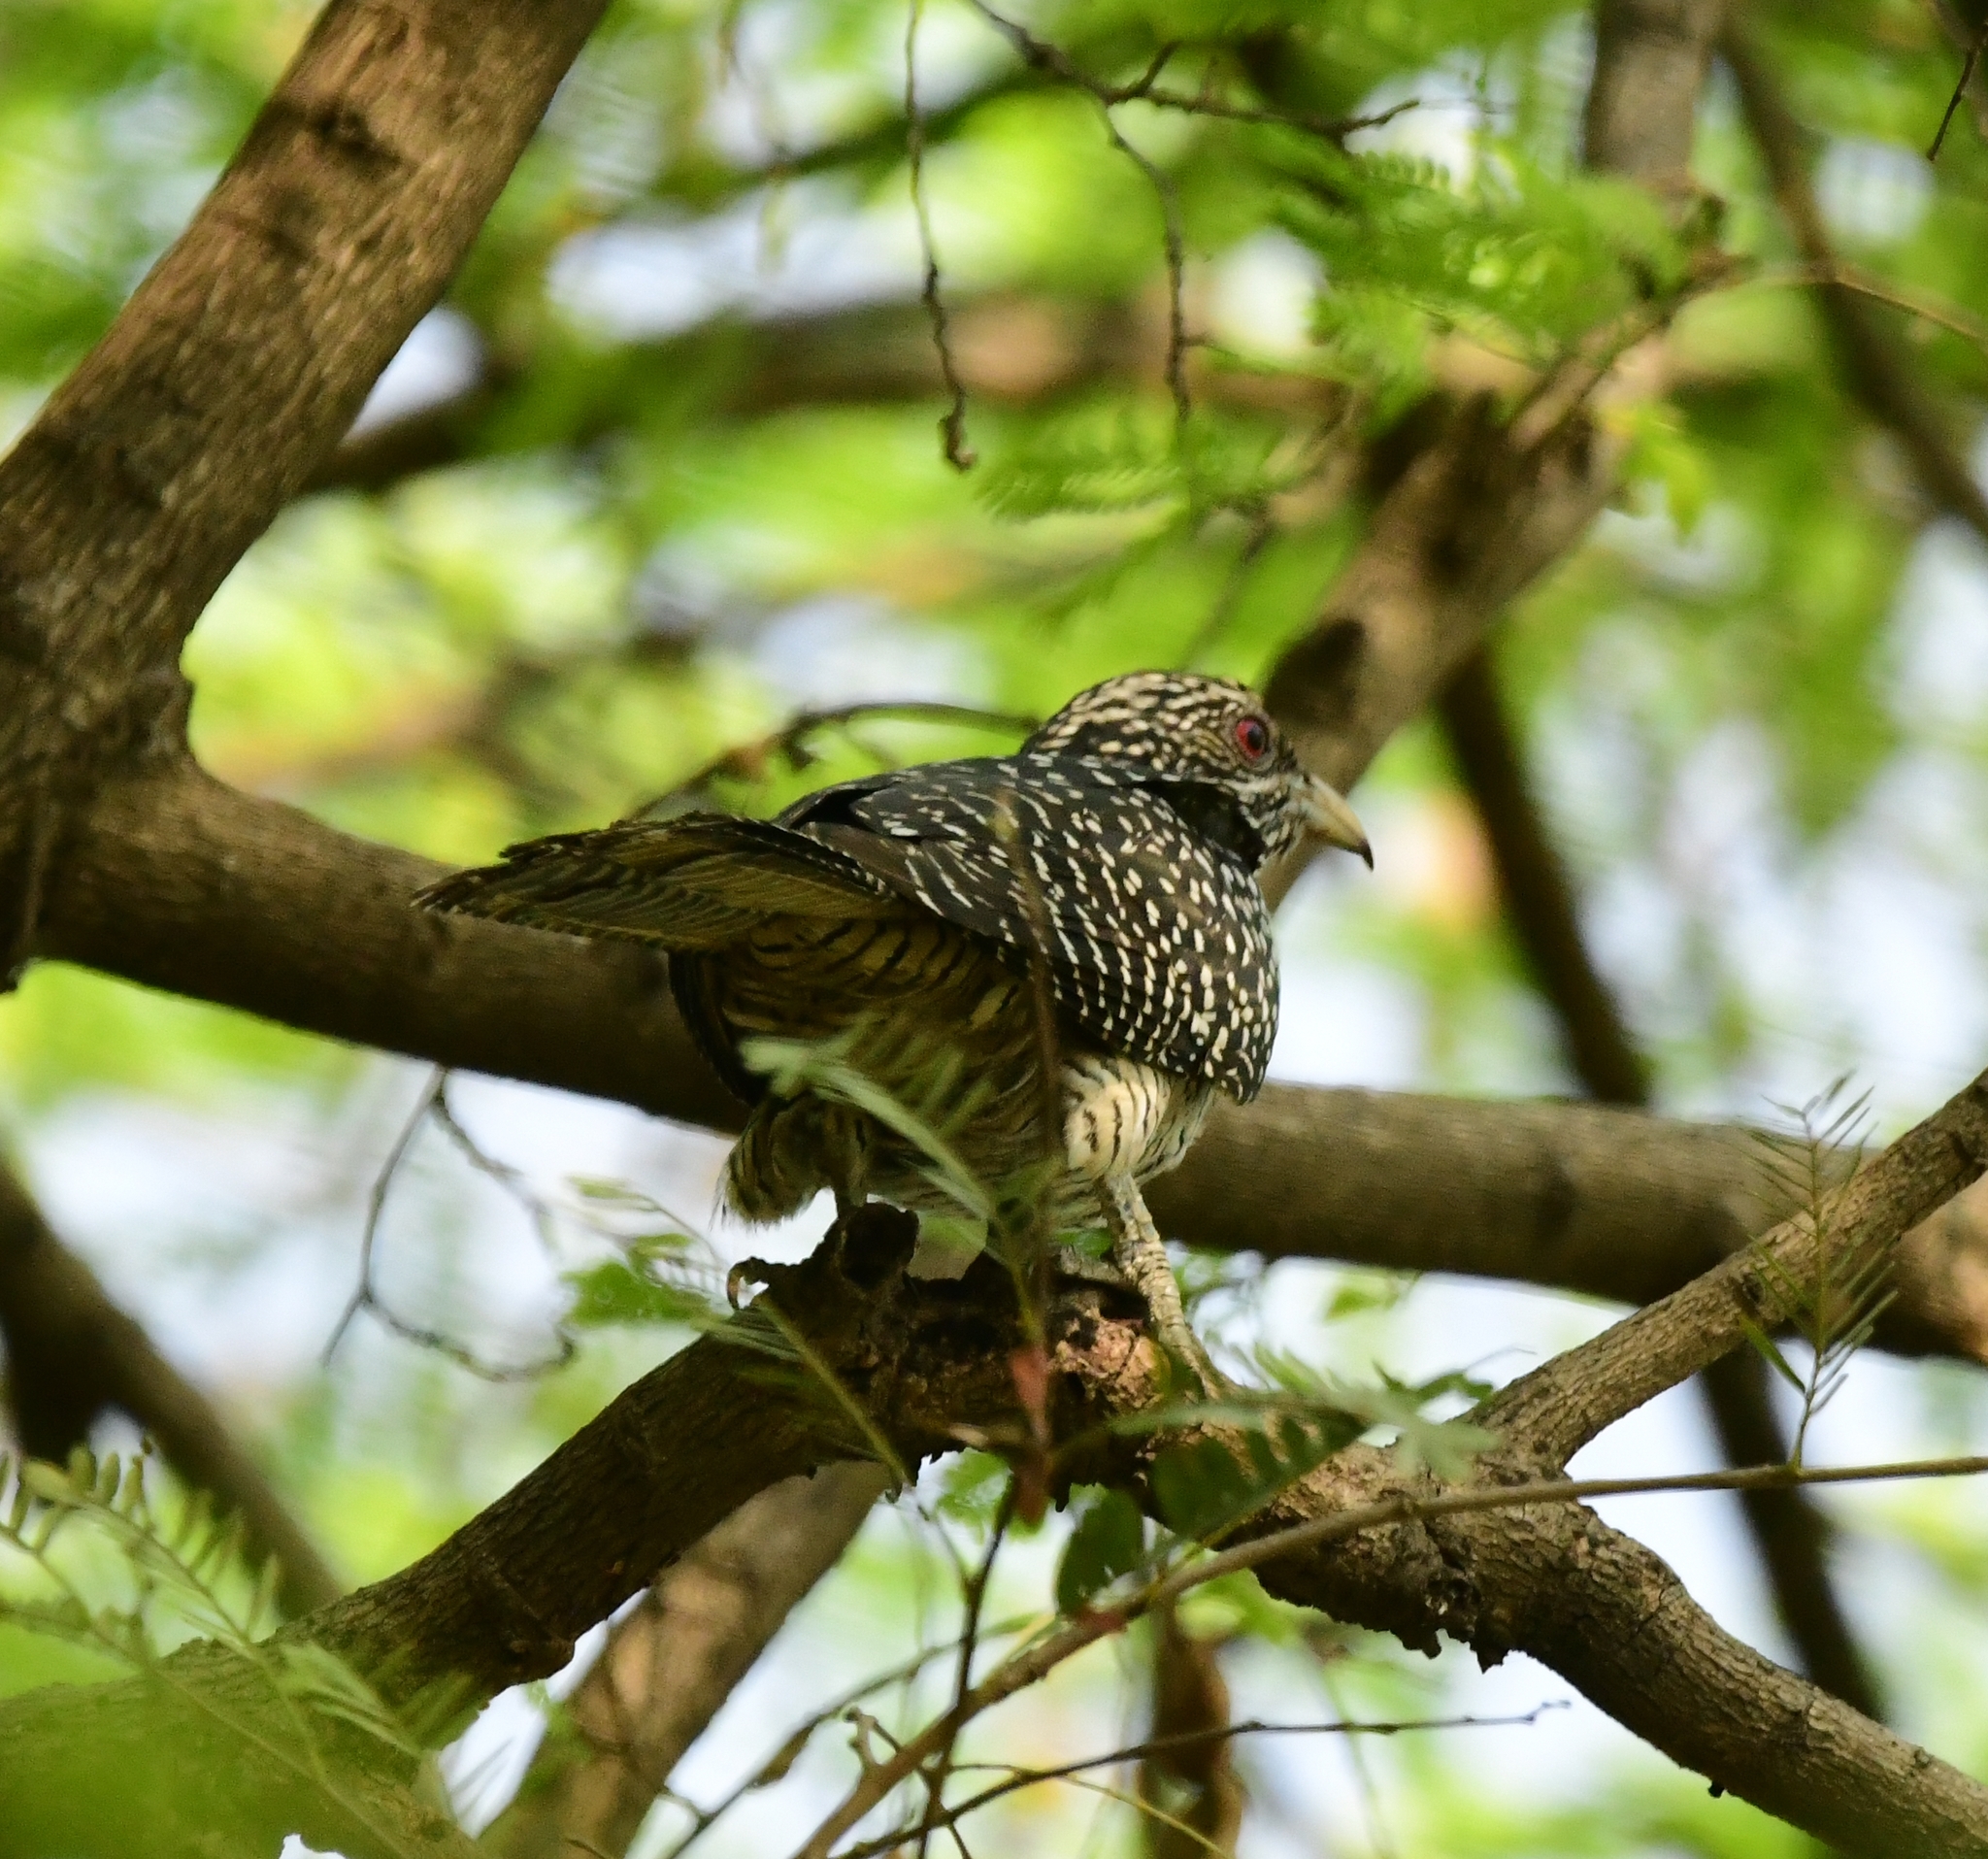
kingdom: Animalia
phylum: Chordata
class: Aves
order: Cuculiformes
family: Cuculidae
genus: Eudynamys
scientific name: Eudynamys scolopaceus
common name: Asian koel
